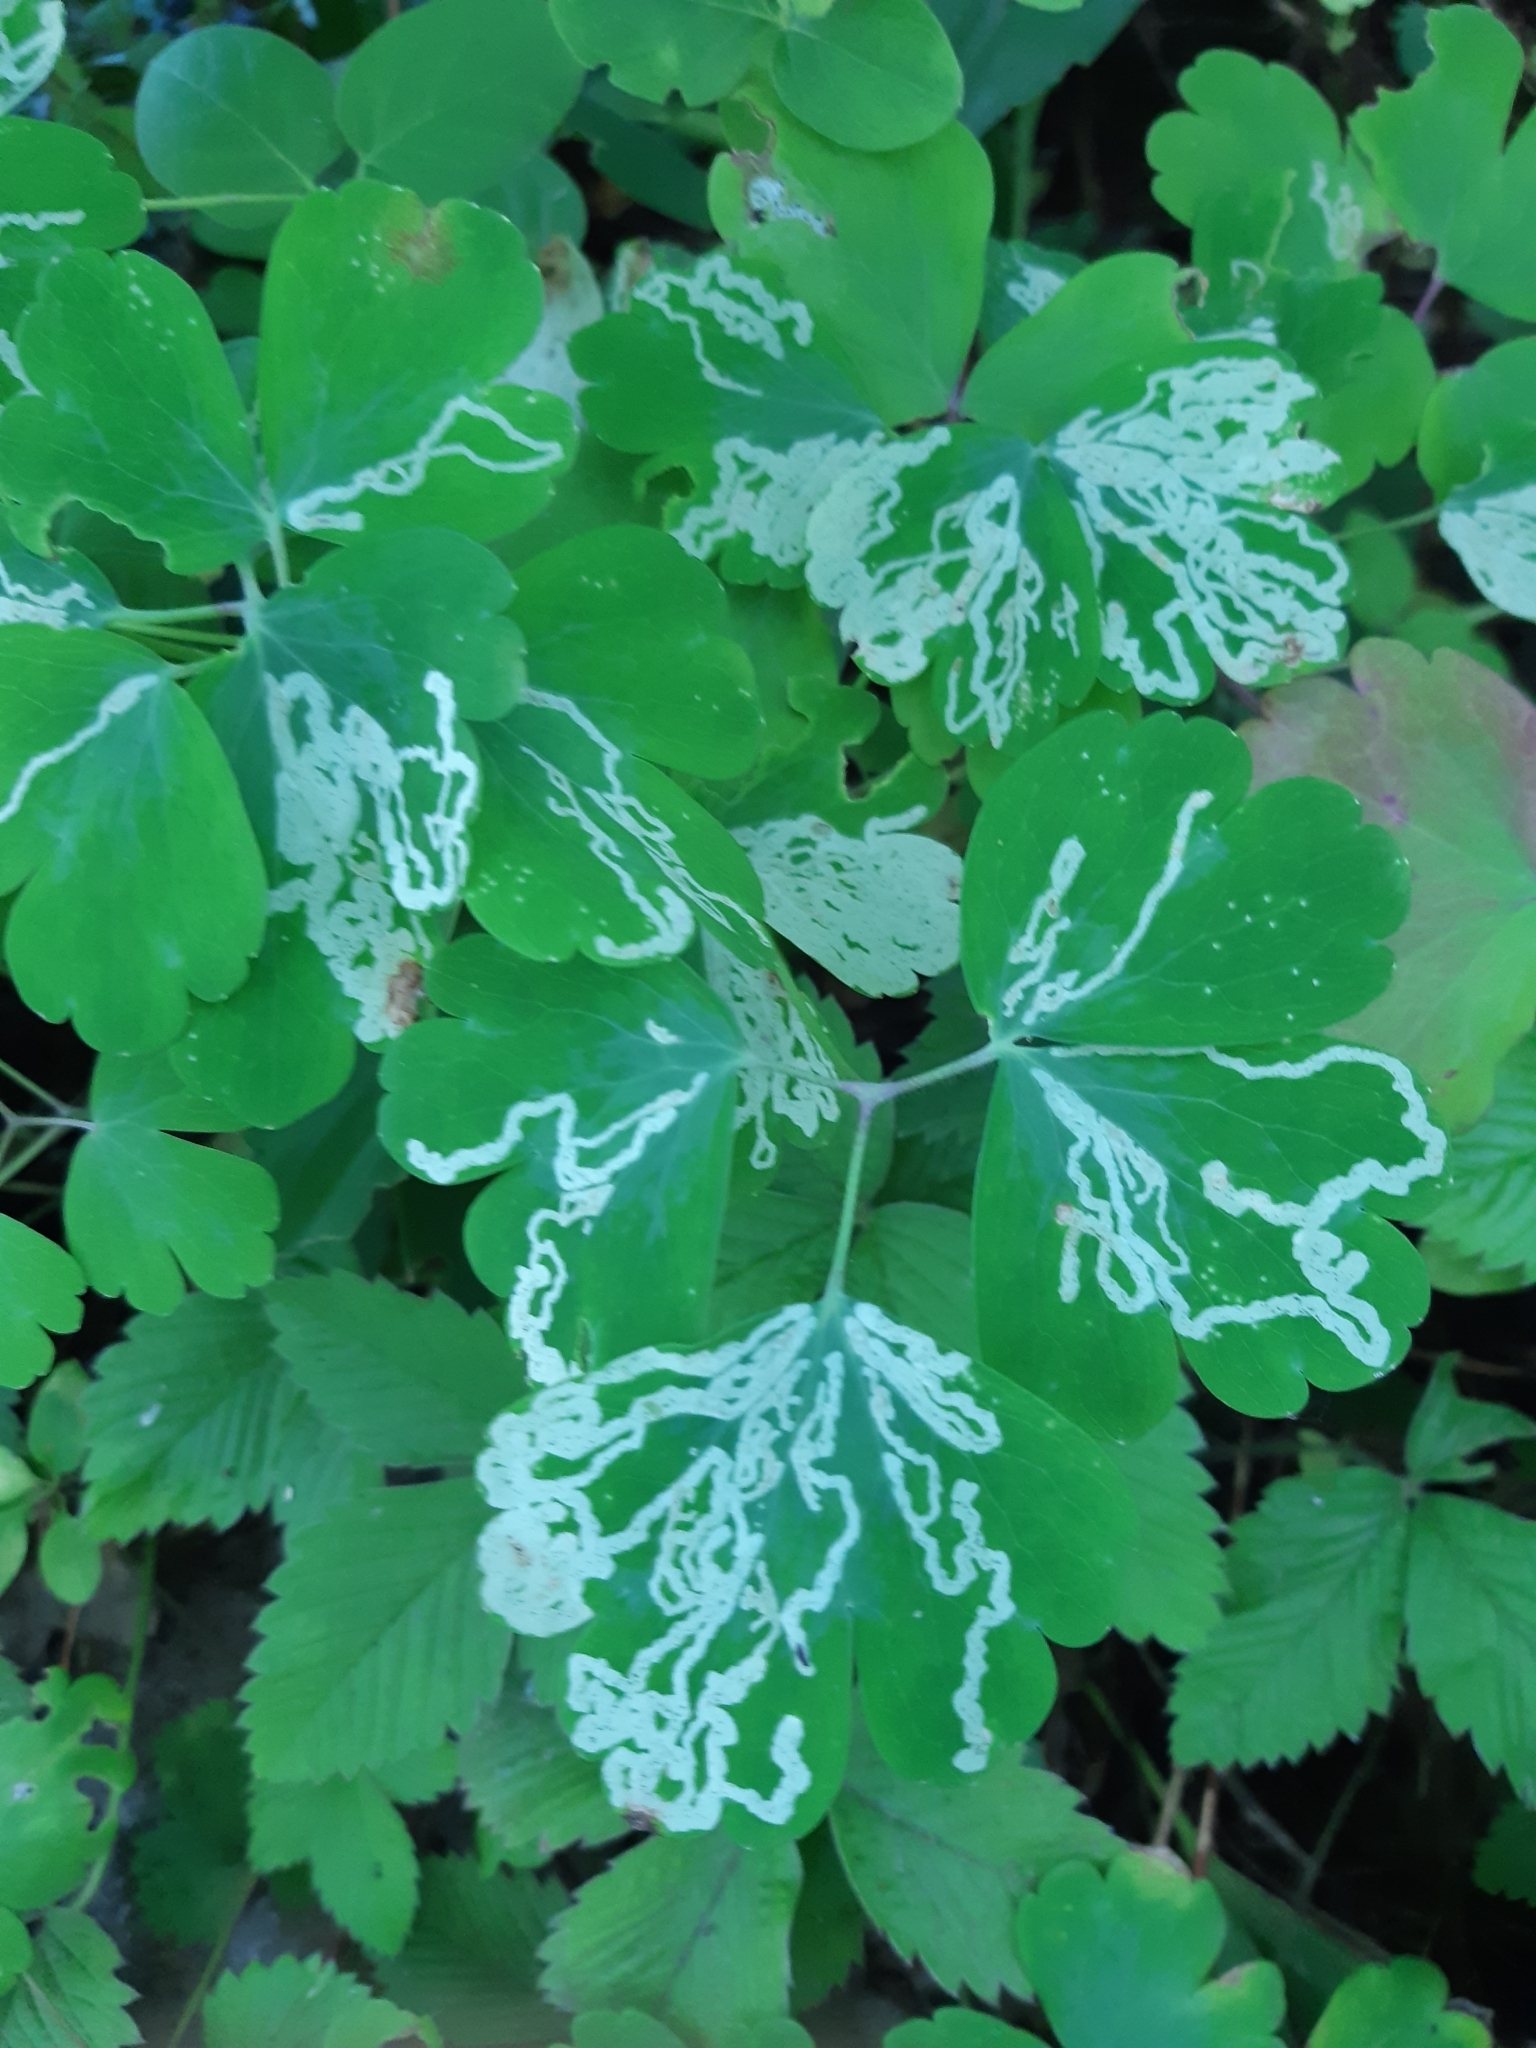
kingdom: Animalia
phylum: Arthropoda
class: Insecta
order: Diptera
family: Agromyzidae
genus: Phytomyza
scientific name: Phytomyza ancholiae
